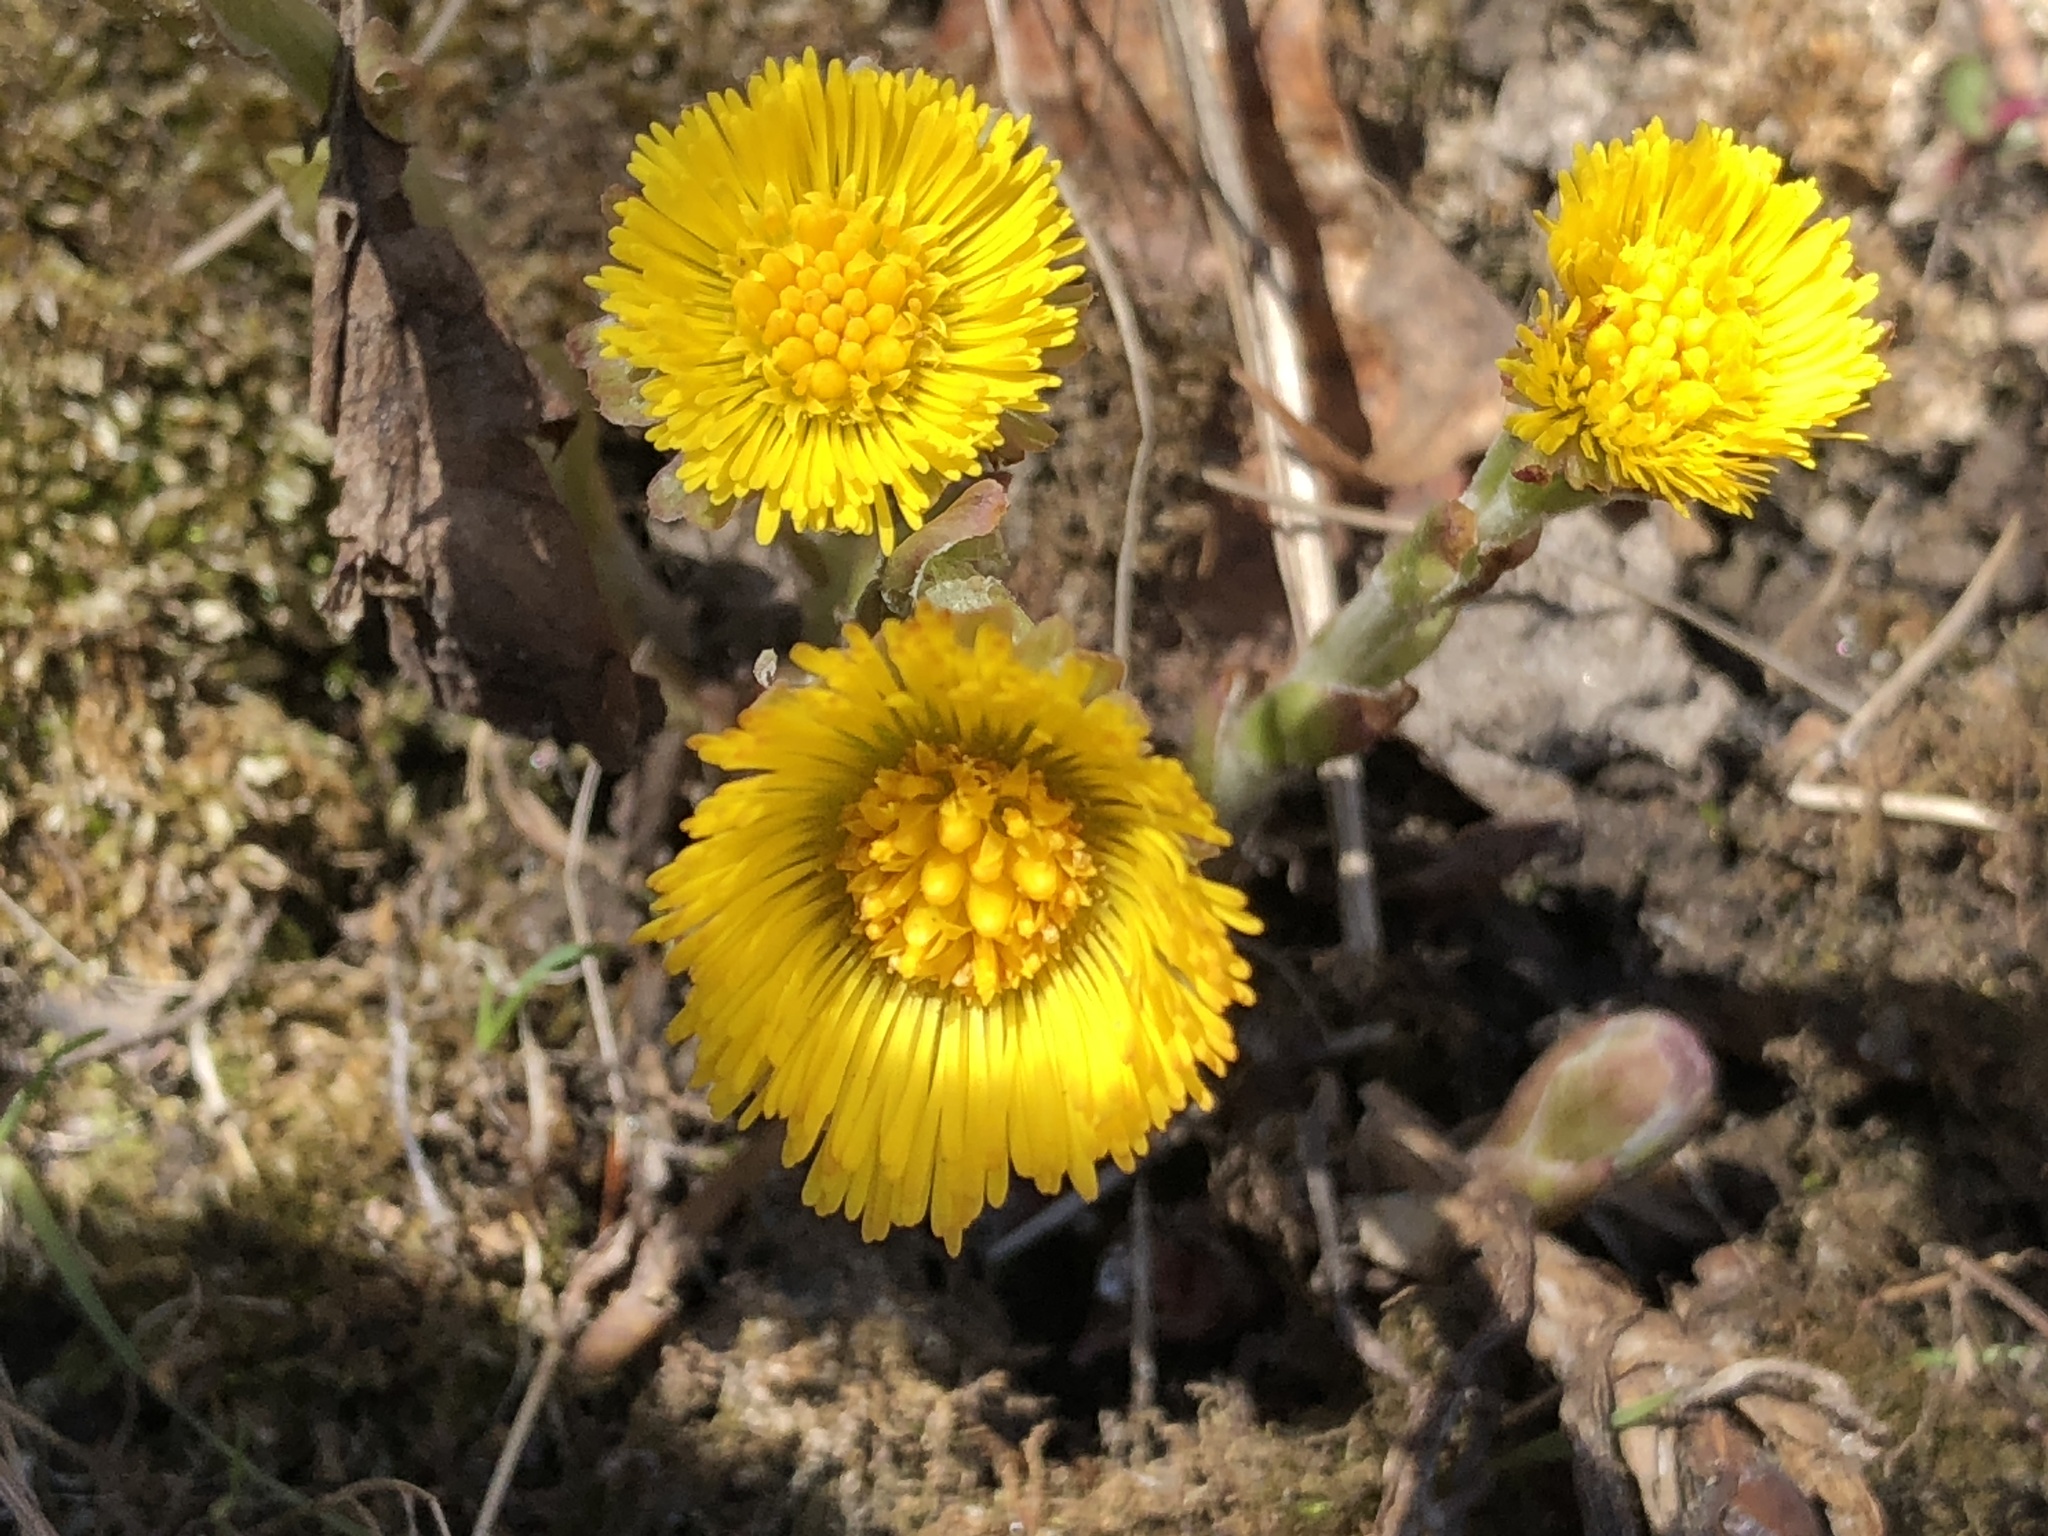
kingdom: Plantae
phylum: Tracheophyta
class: Magnoliopsida
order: Asterales
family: Asteraceae
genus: Tussilago
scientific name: Tussilago farfara
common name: Coltsfoot
